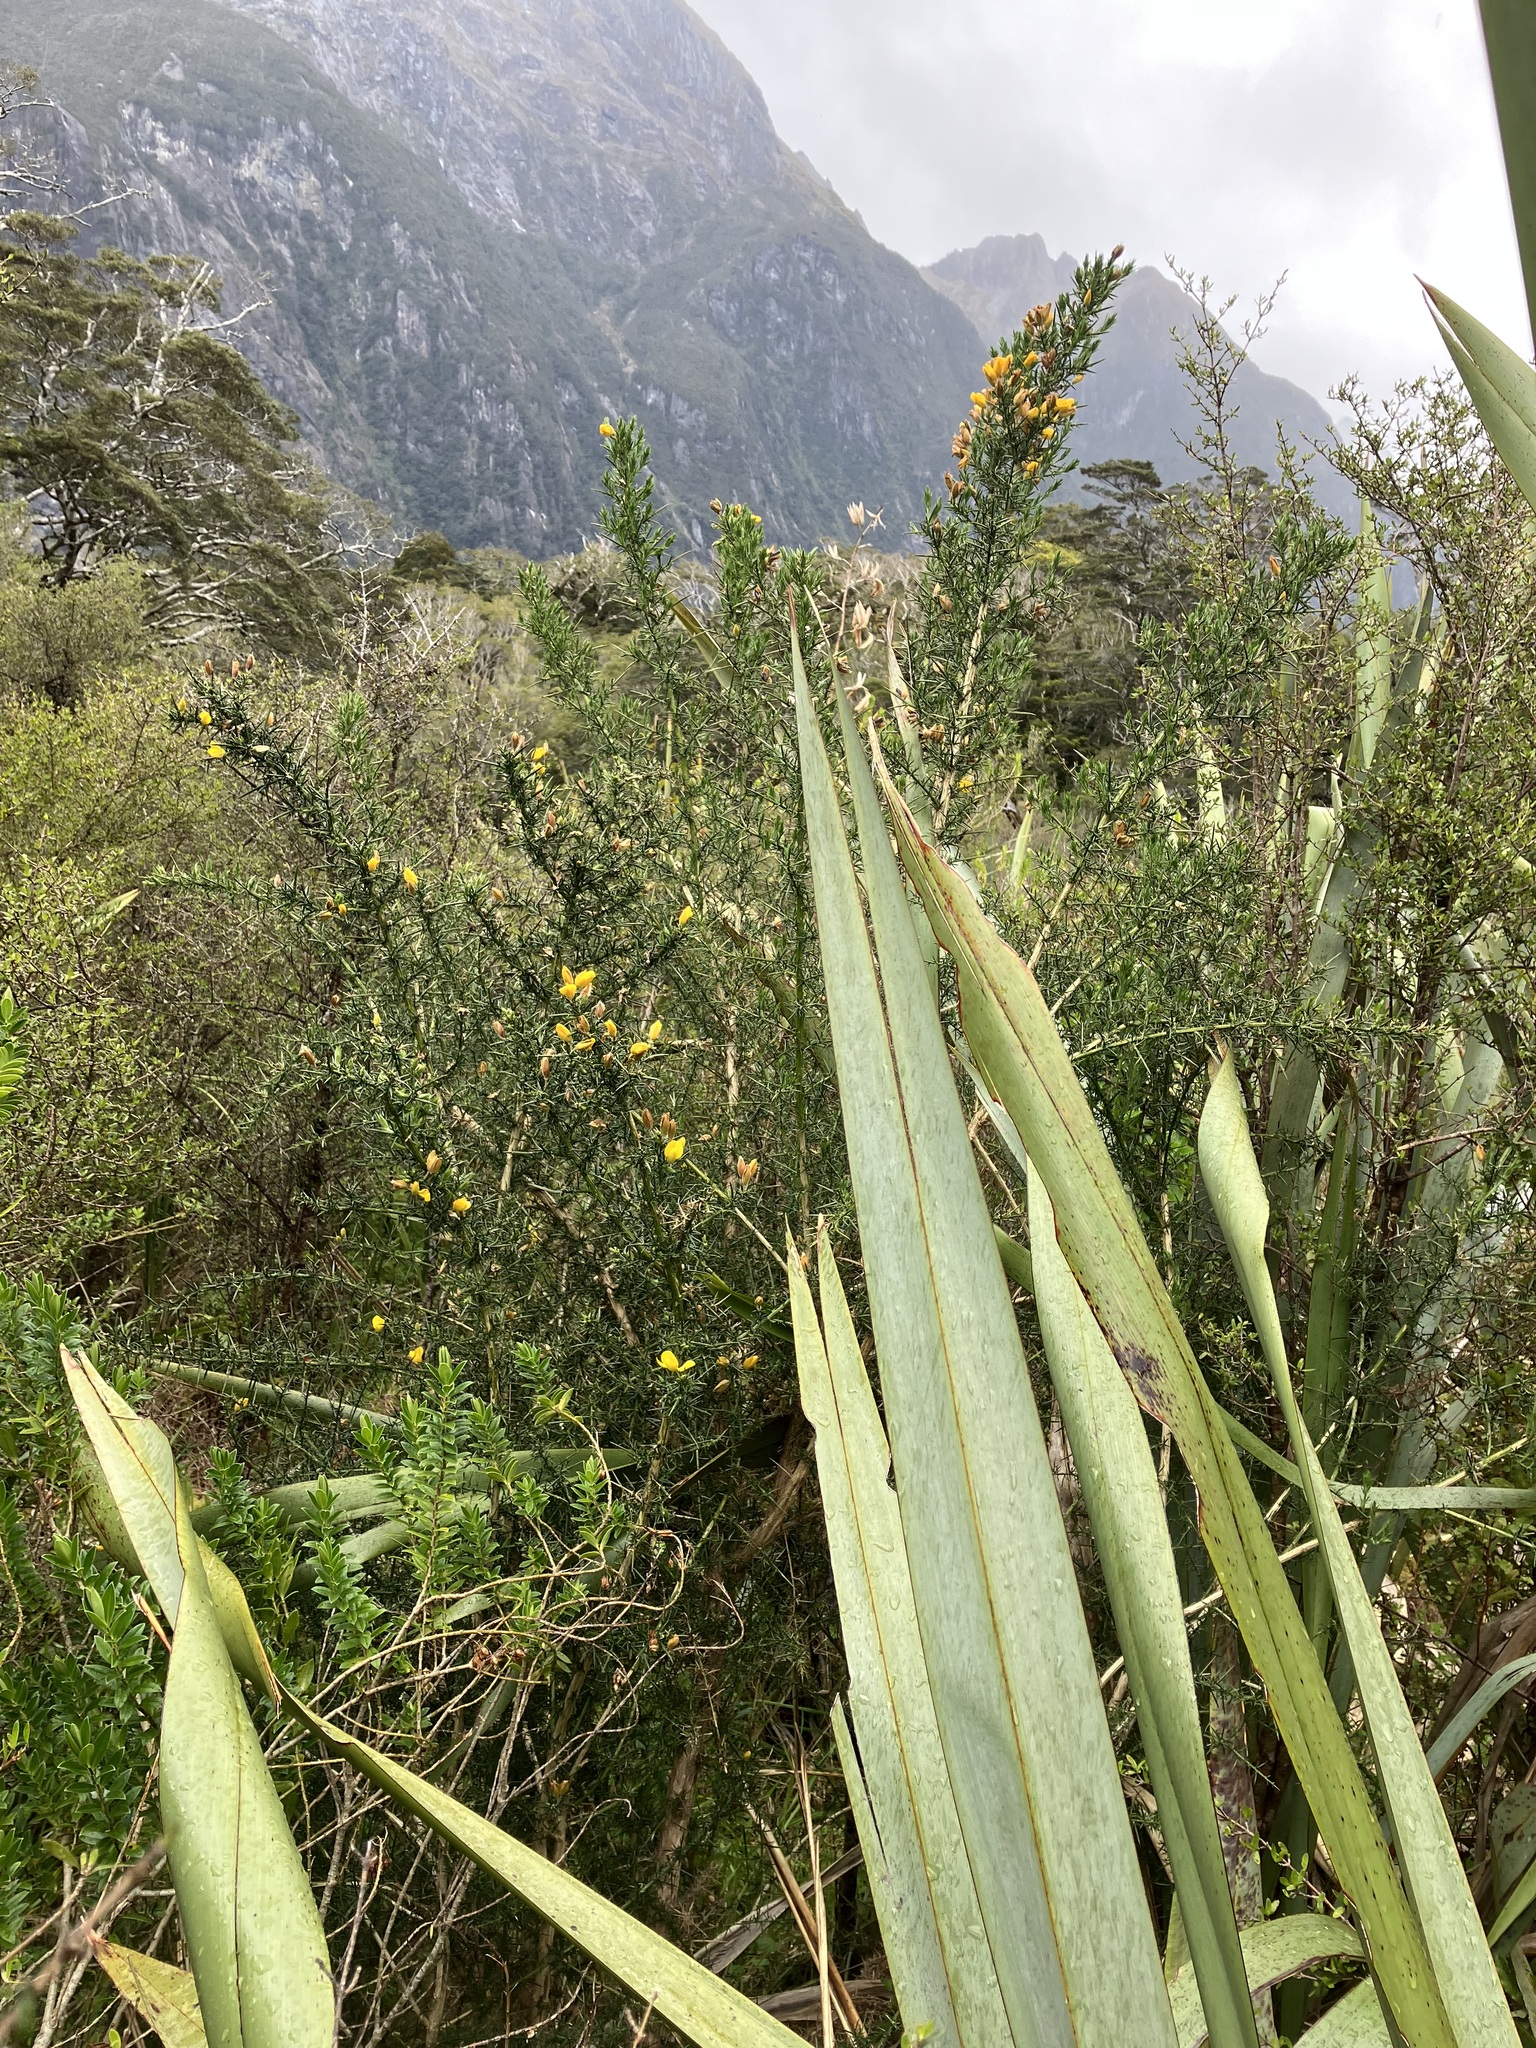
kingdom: Plantae
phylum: Tracheophyta
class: Magnoliopsida
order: Fabales
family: Fabaceae
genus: Ulex
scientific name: Ulex europaeus
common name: Common gorse
